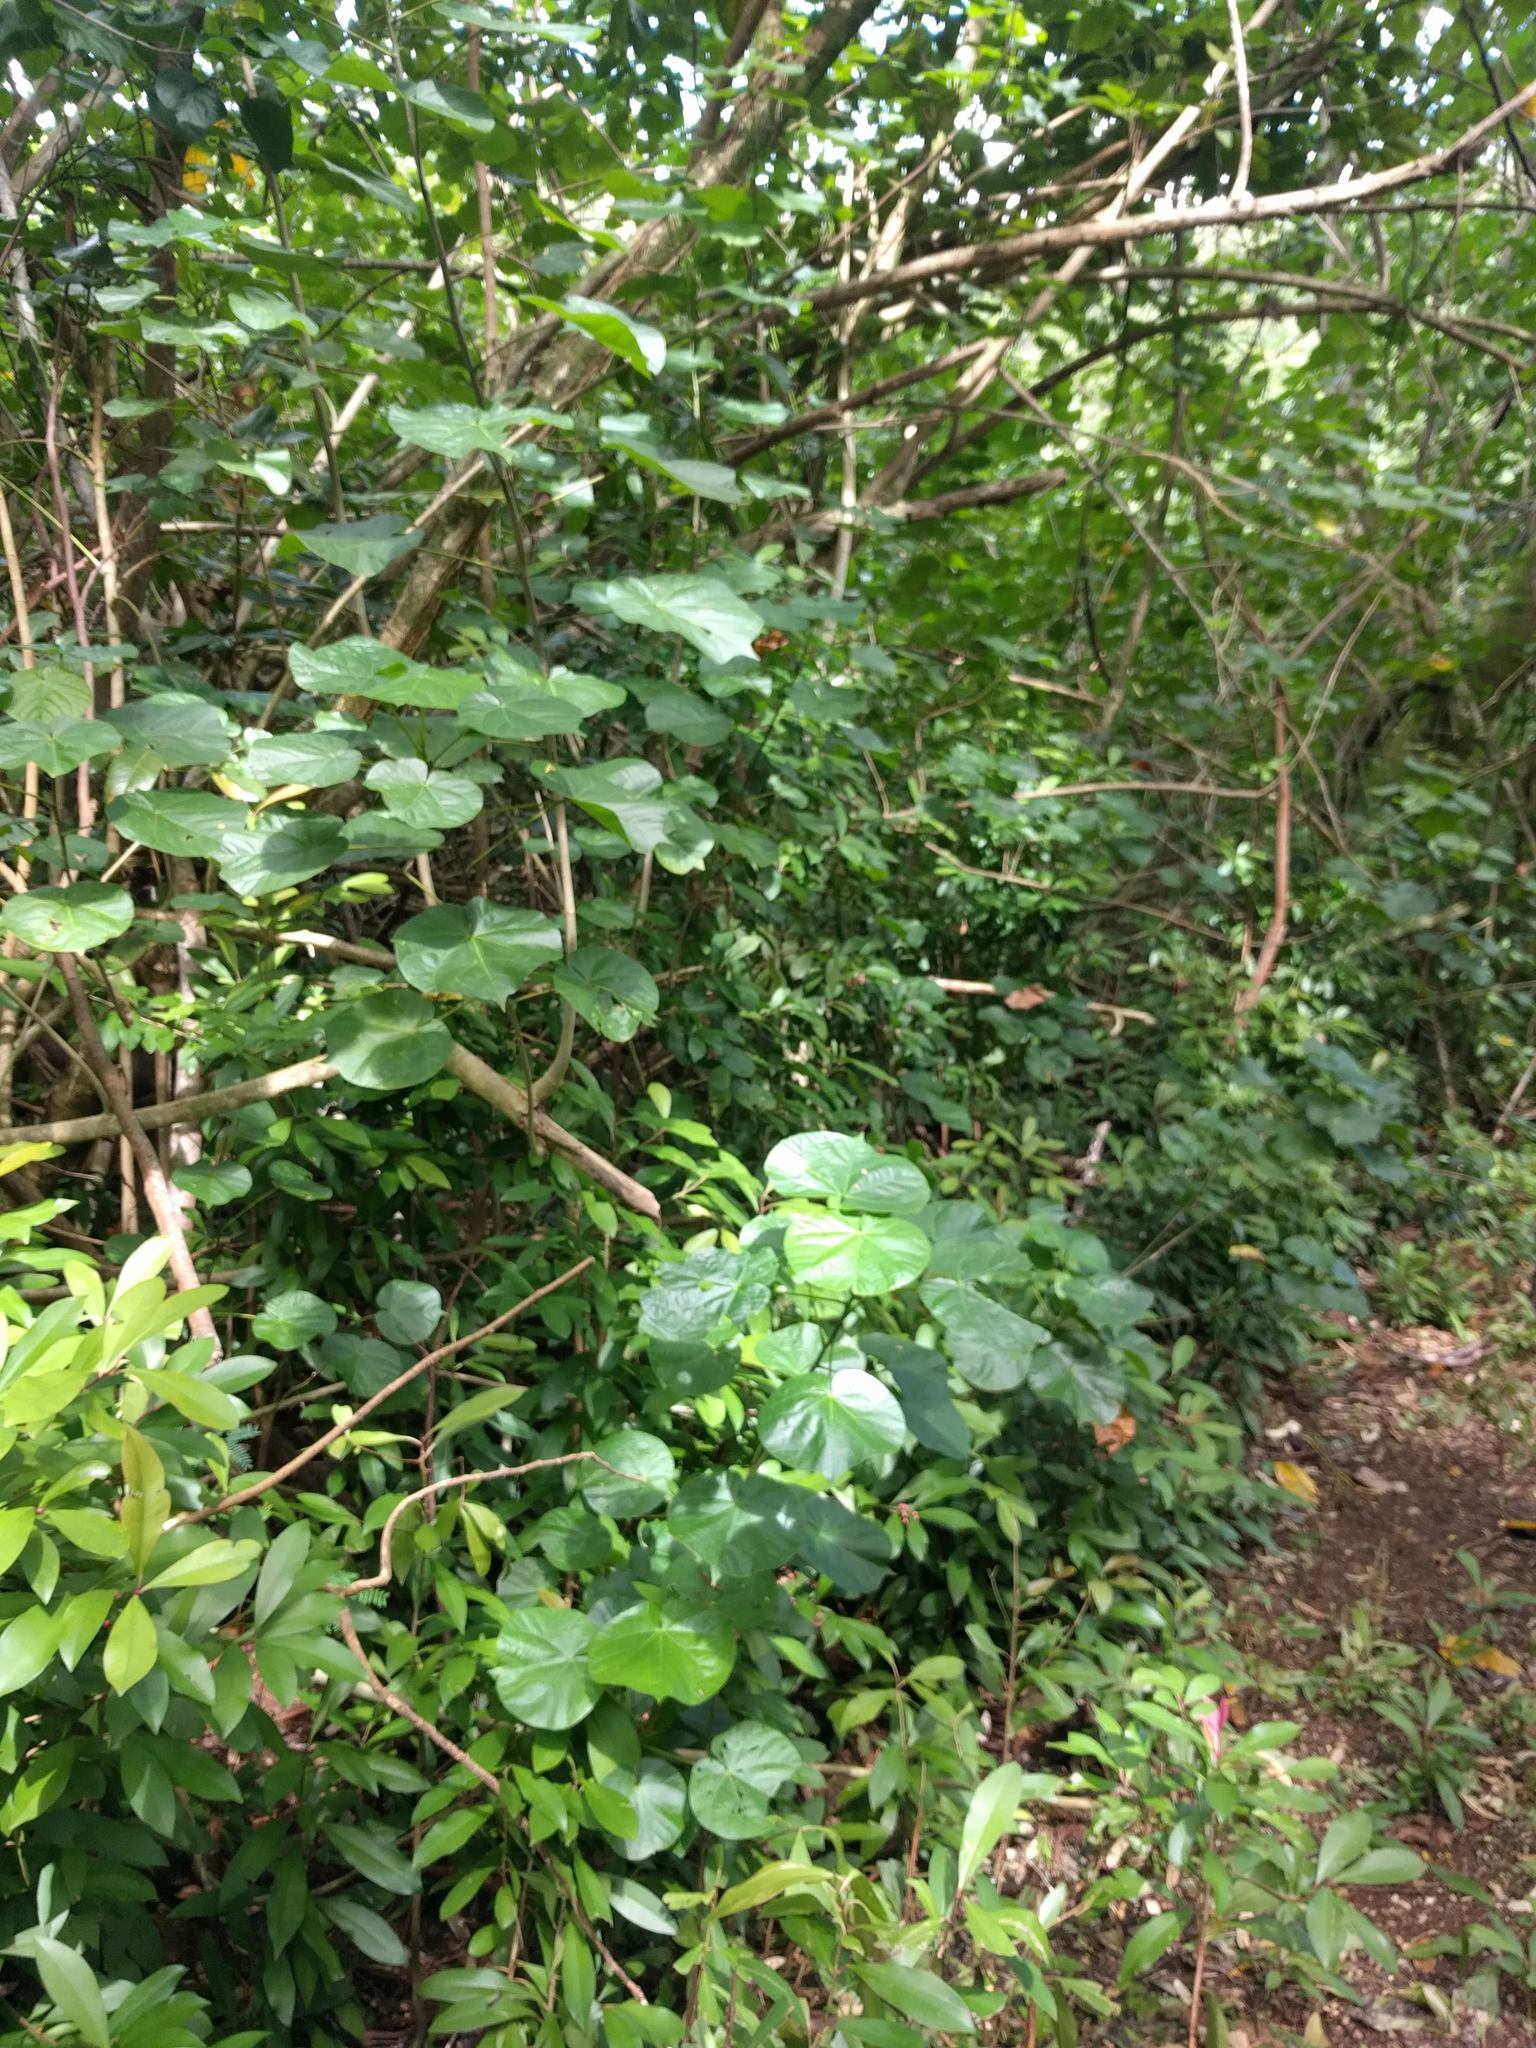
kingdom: Plantae
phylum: Tracheophyta
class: Magnoliopsida
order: Malvales
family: Malvaceae
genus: Talipariti
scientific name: Talipariti tiliaceum
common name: Sea hibiscus
